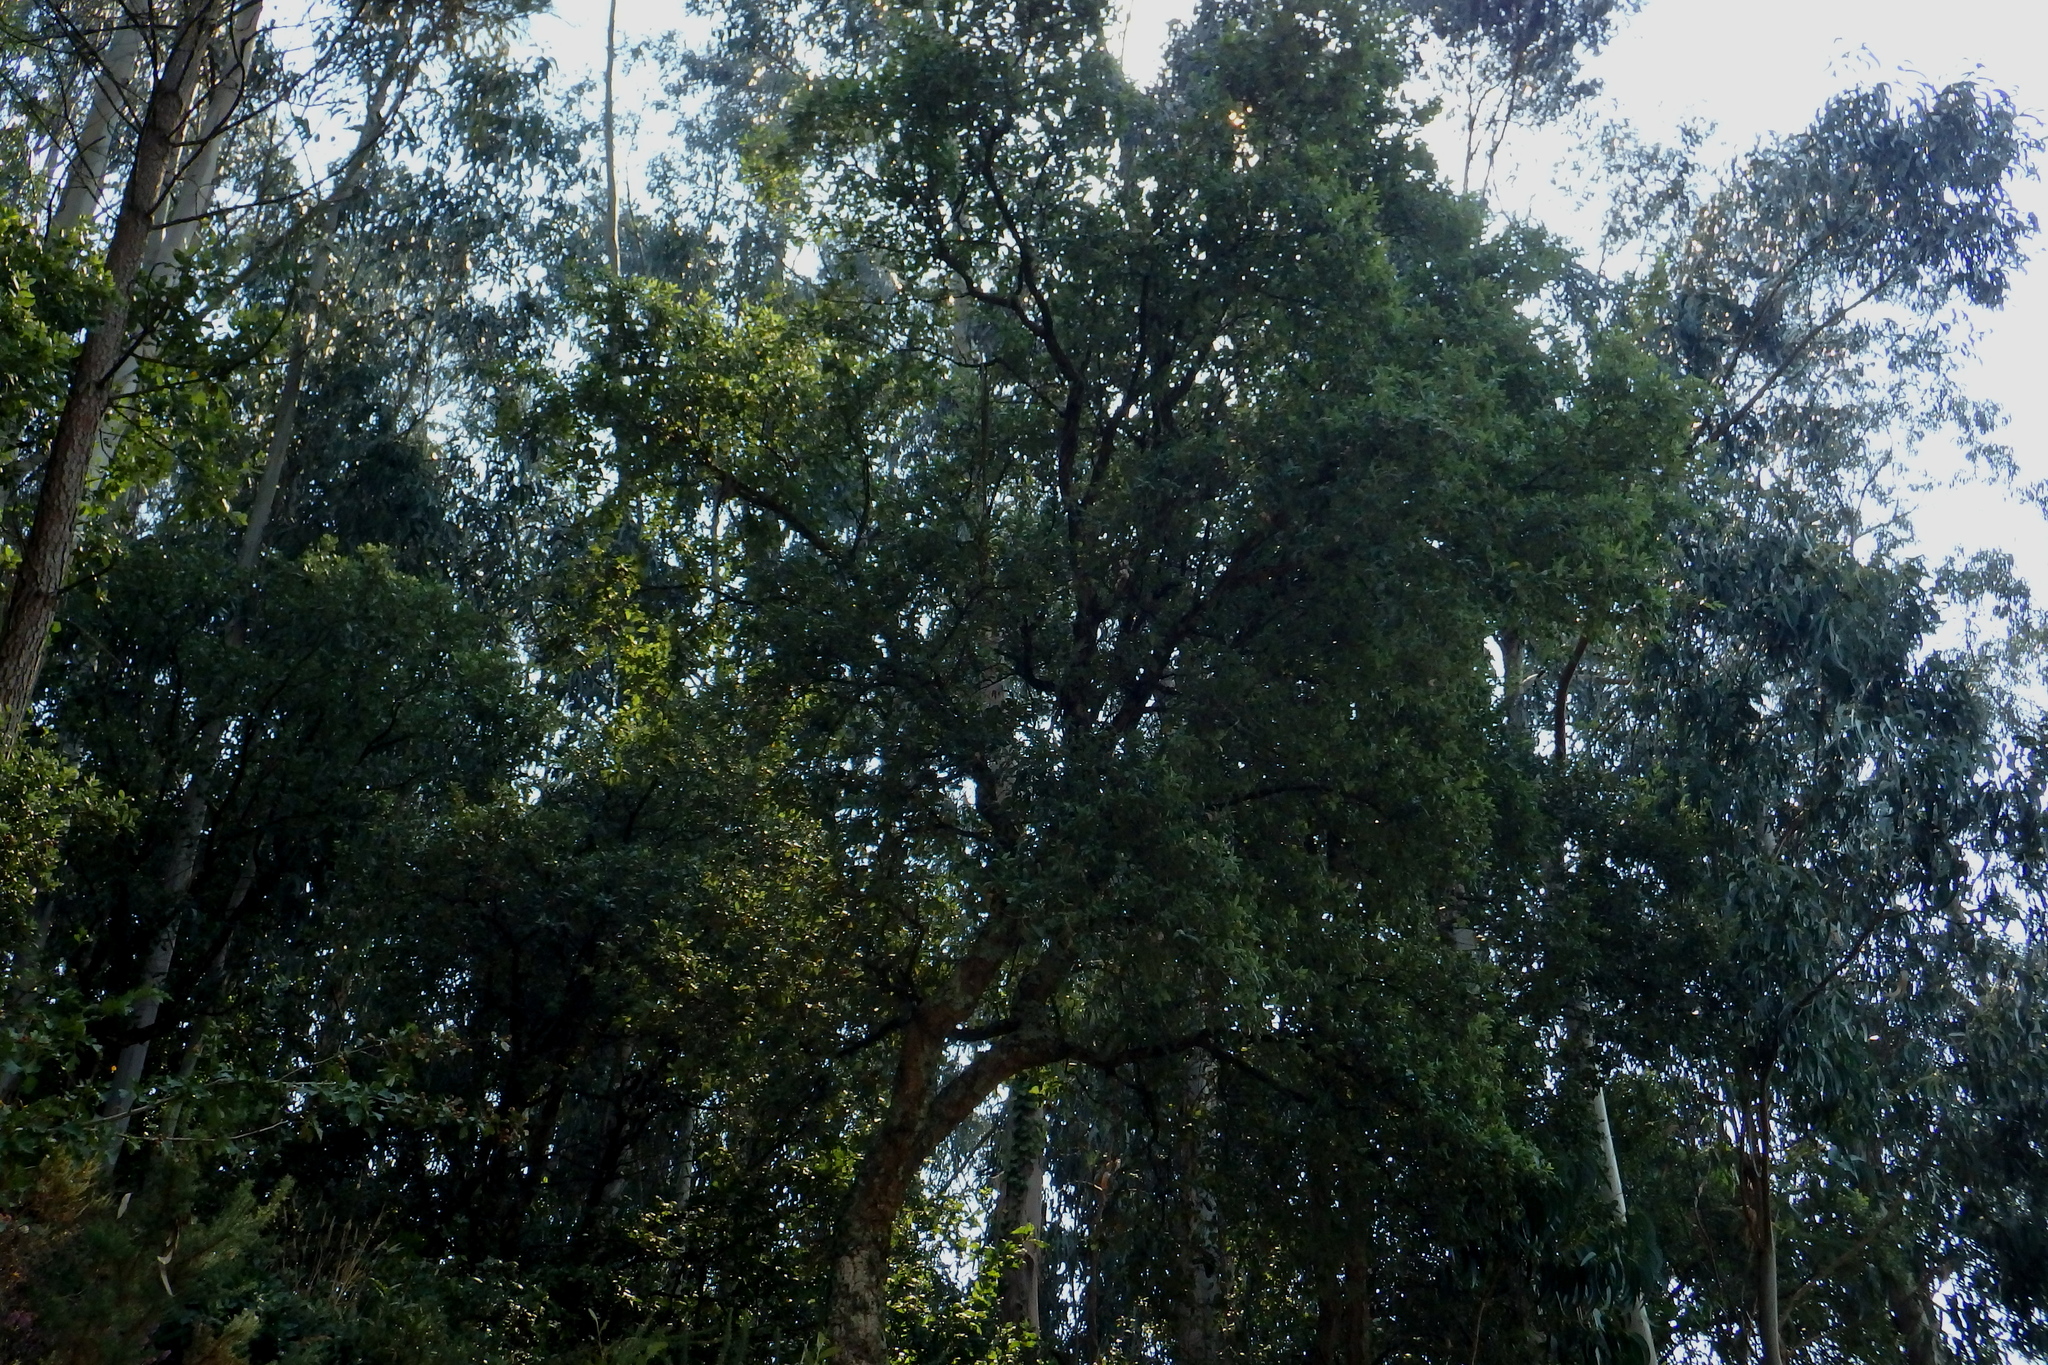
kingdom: Plantae
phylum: Tracheophyta
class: Magnoliopsida
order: Fagales
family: Fagaceae
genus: Quercus
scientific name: Quercus suber
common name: Cork oak
